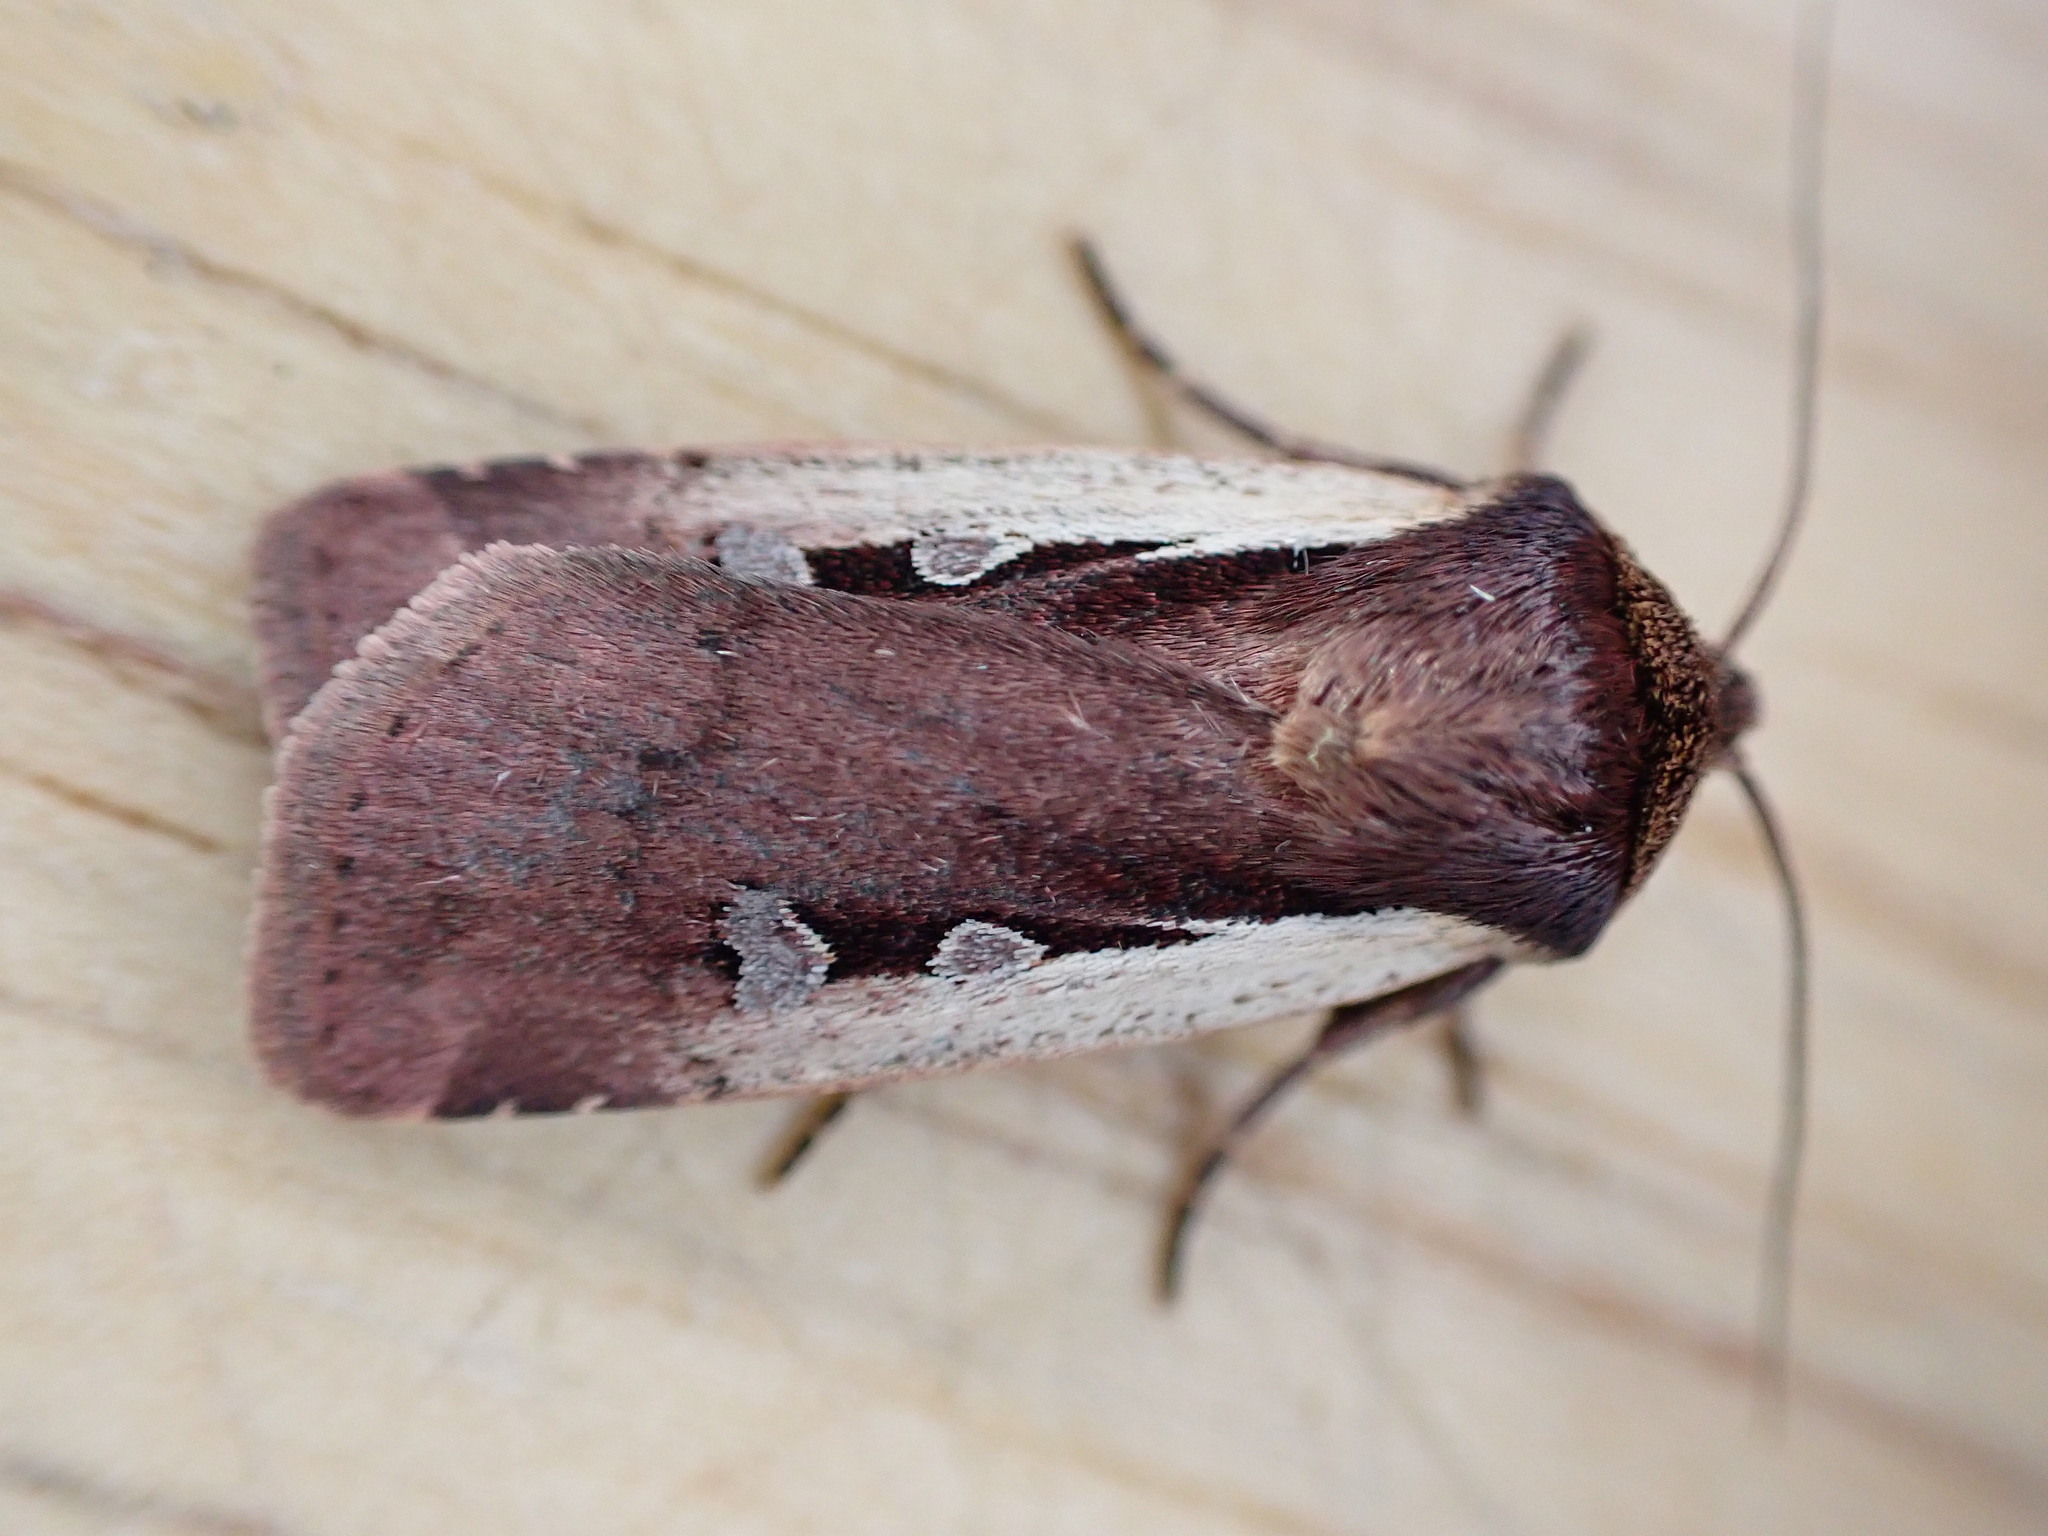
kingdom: Animalia
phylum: Arthropoda
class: Insecta
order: Lepidoptera
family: Noctuidae
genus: Ochropleura
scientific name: Ochropleura plecta
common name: Flame shoulder
